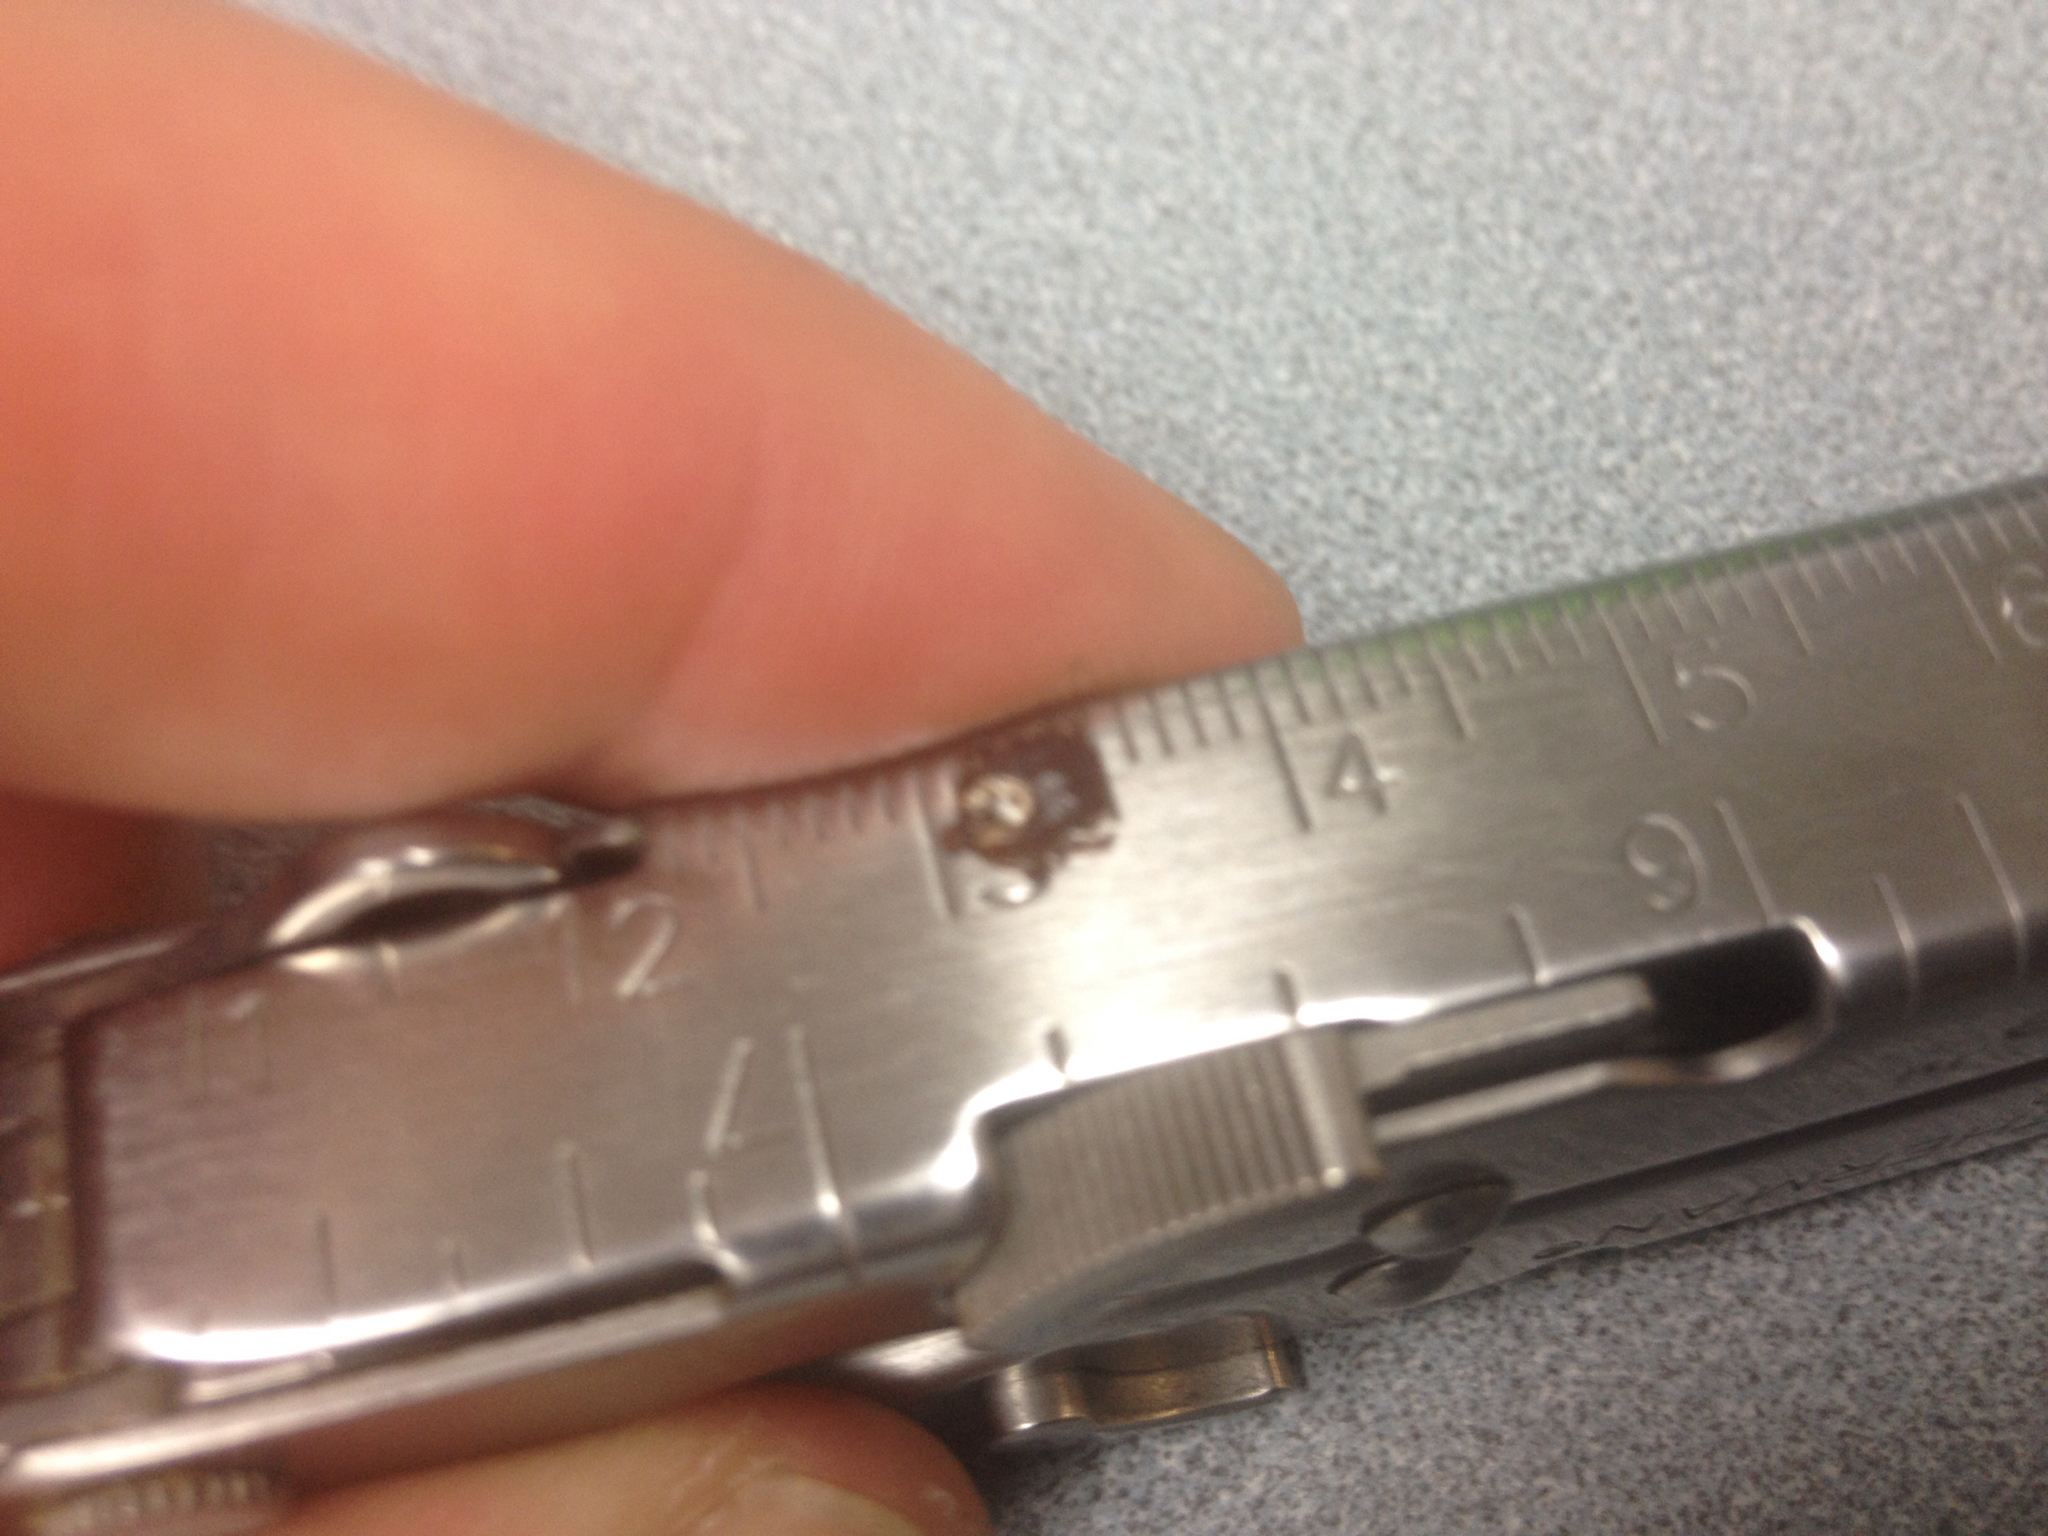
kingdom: Animalia
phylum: Arthropoda
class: Arachnida
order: Ixodida
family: Ixodidae
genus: Dermacentor
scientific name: Dermacentor variabilis
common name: American dog tick
